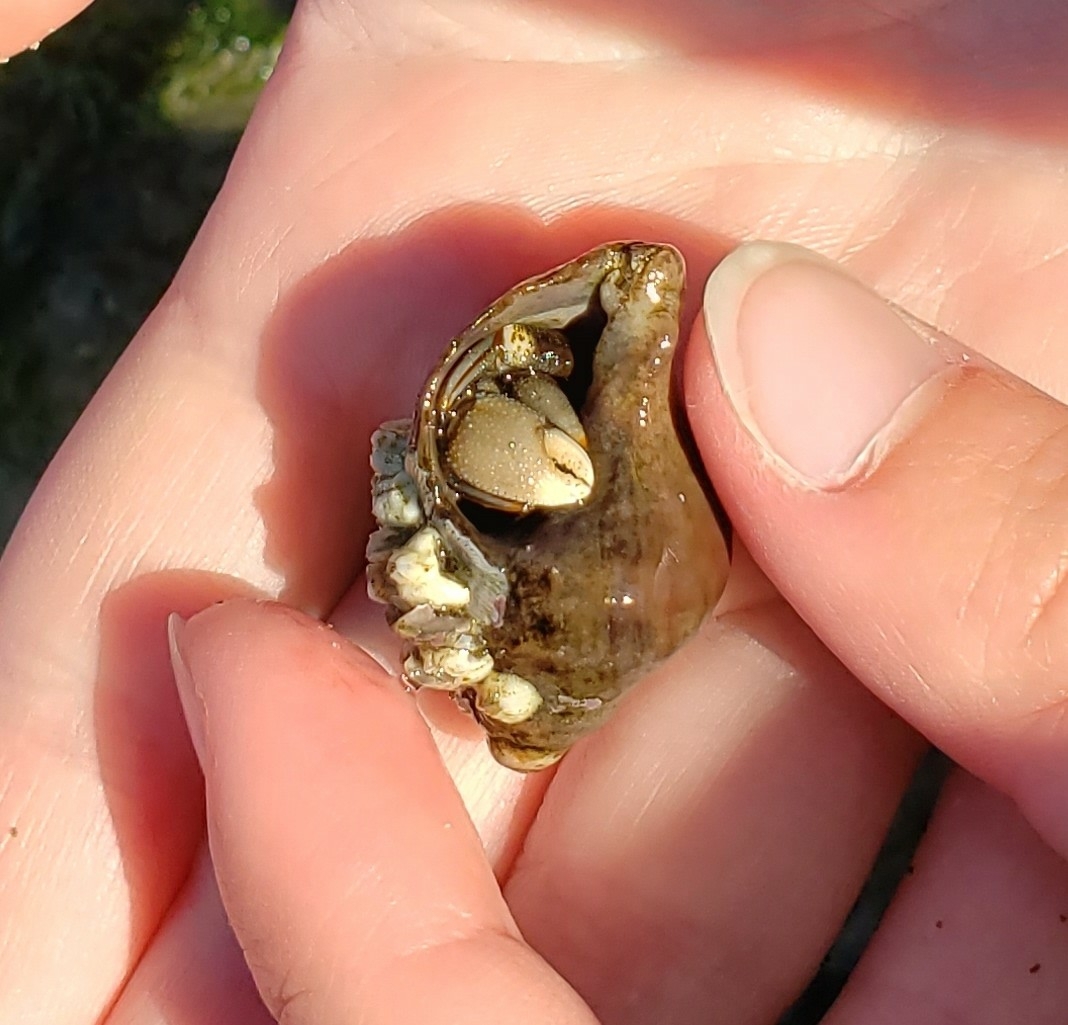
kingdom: Animalia
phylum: Arthropoda
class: Malacostraca
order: Decapoda
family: Paguridae
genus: Pagurus
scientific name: Pagurus hirsutiusculus
